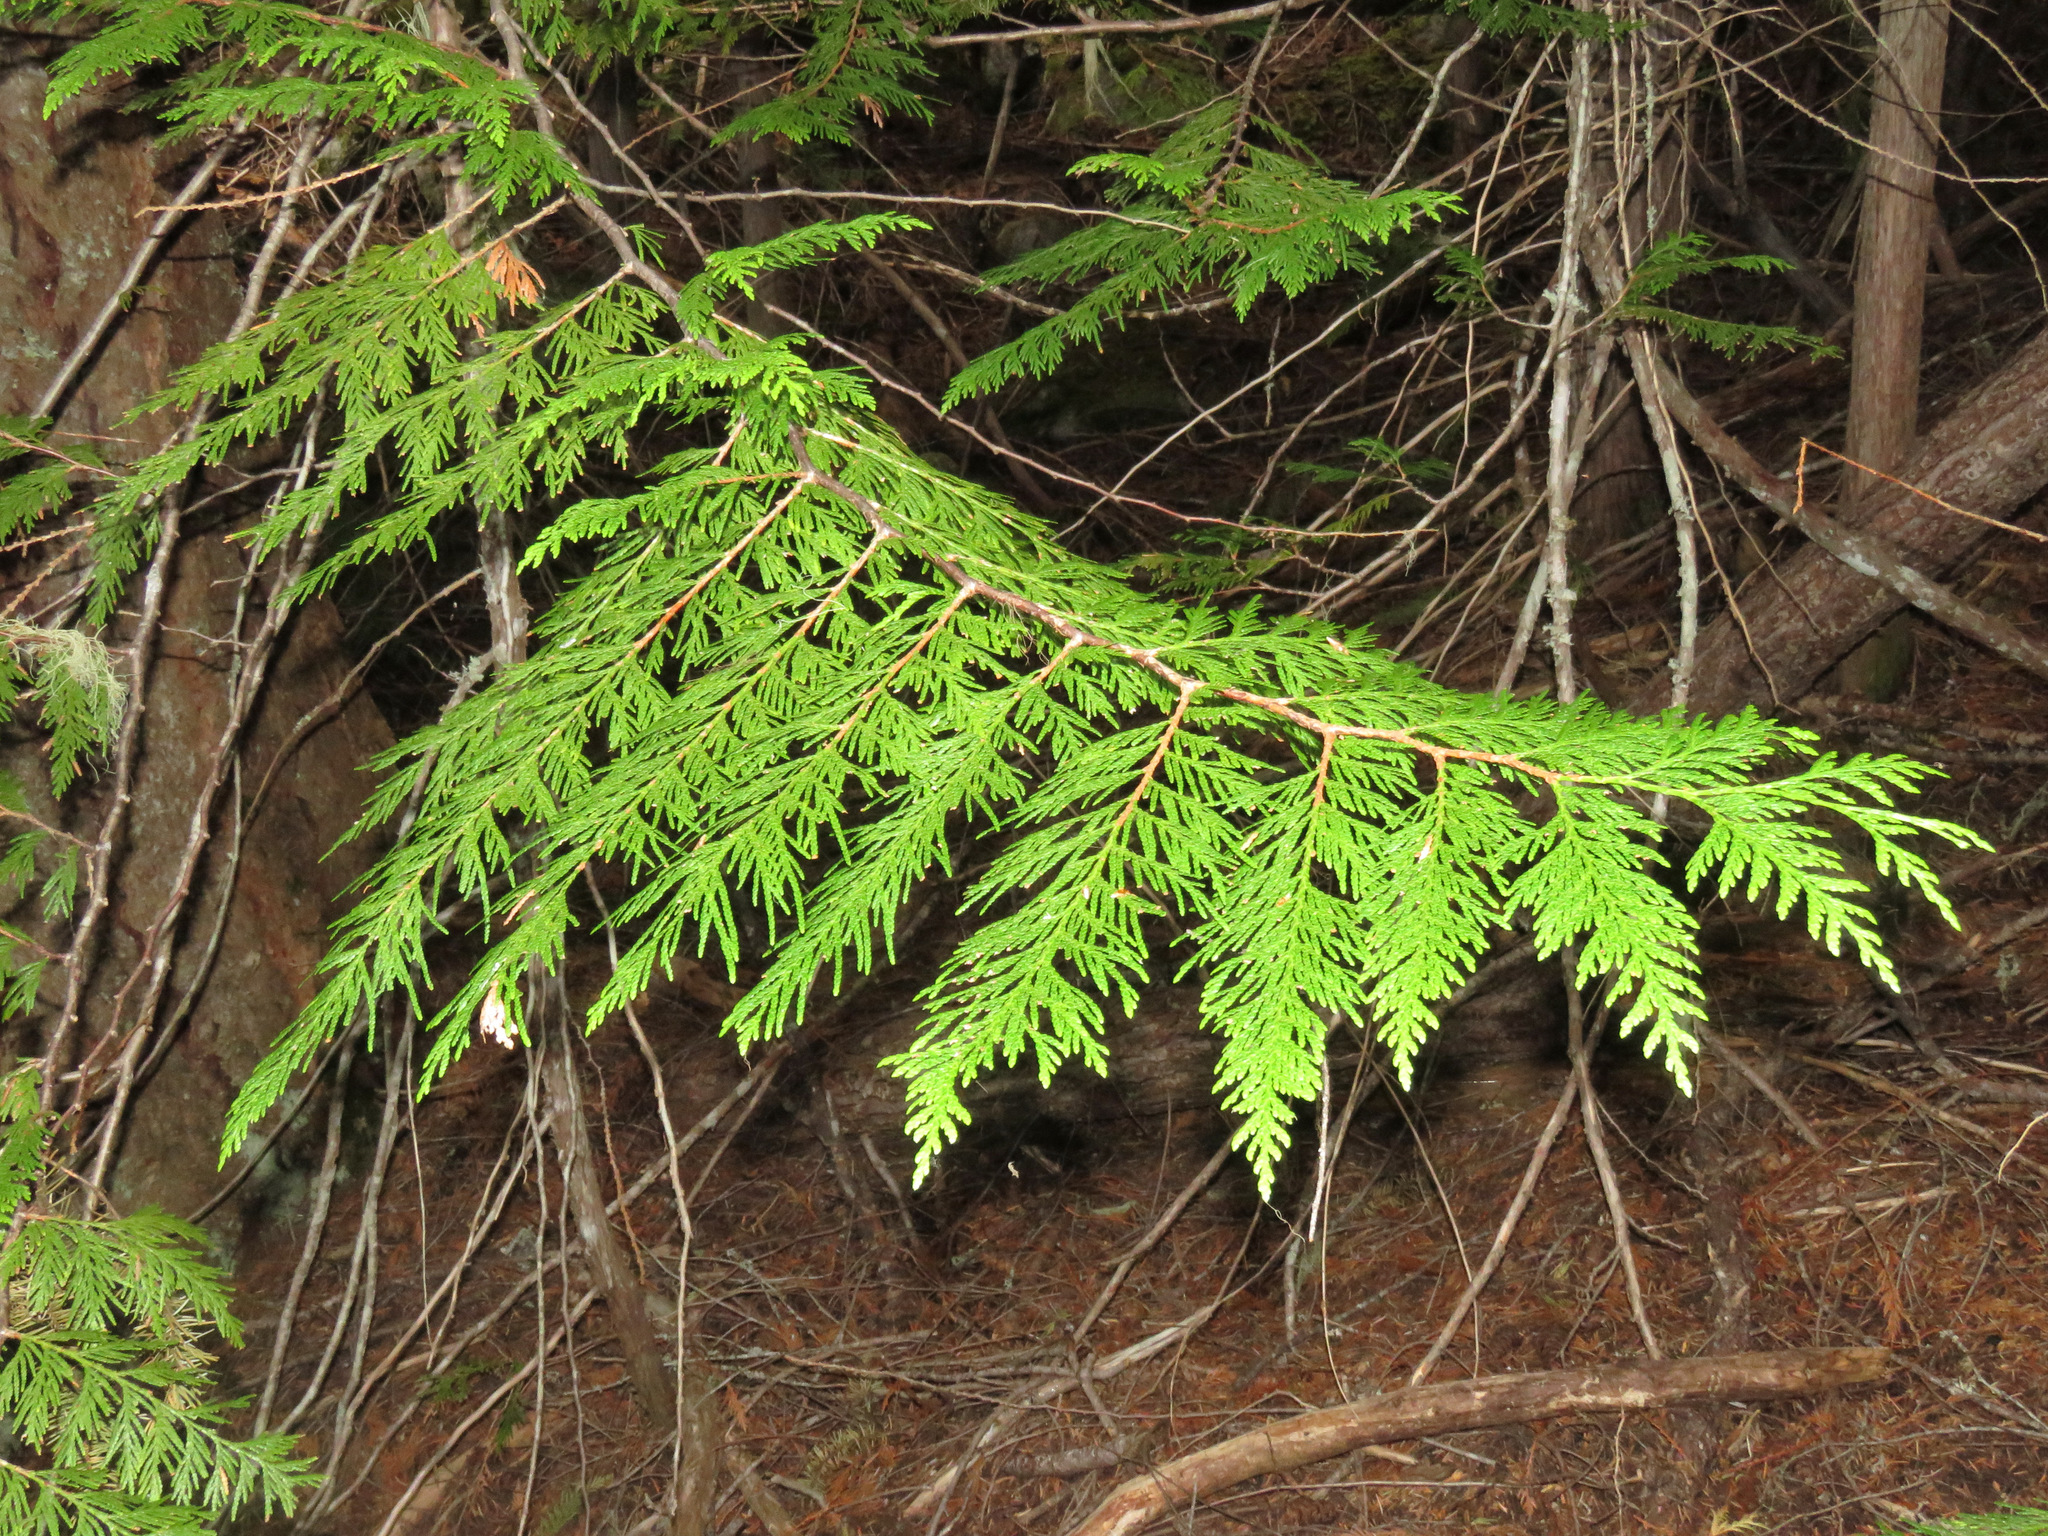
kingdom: Plantae
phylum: Tracheophyta
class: Pinopsida
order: Pinales
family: Cupressaceae
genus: Thuja
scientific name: Thuja plicata
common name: Western red-cedar
